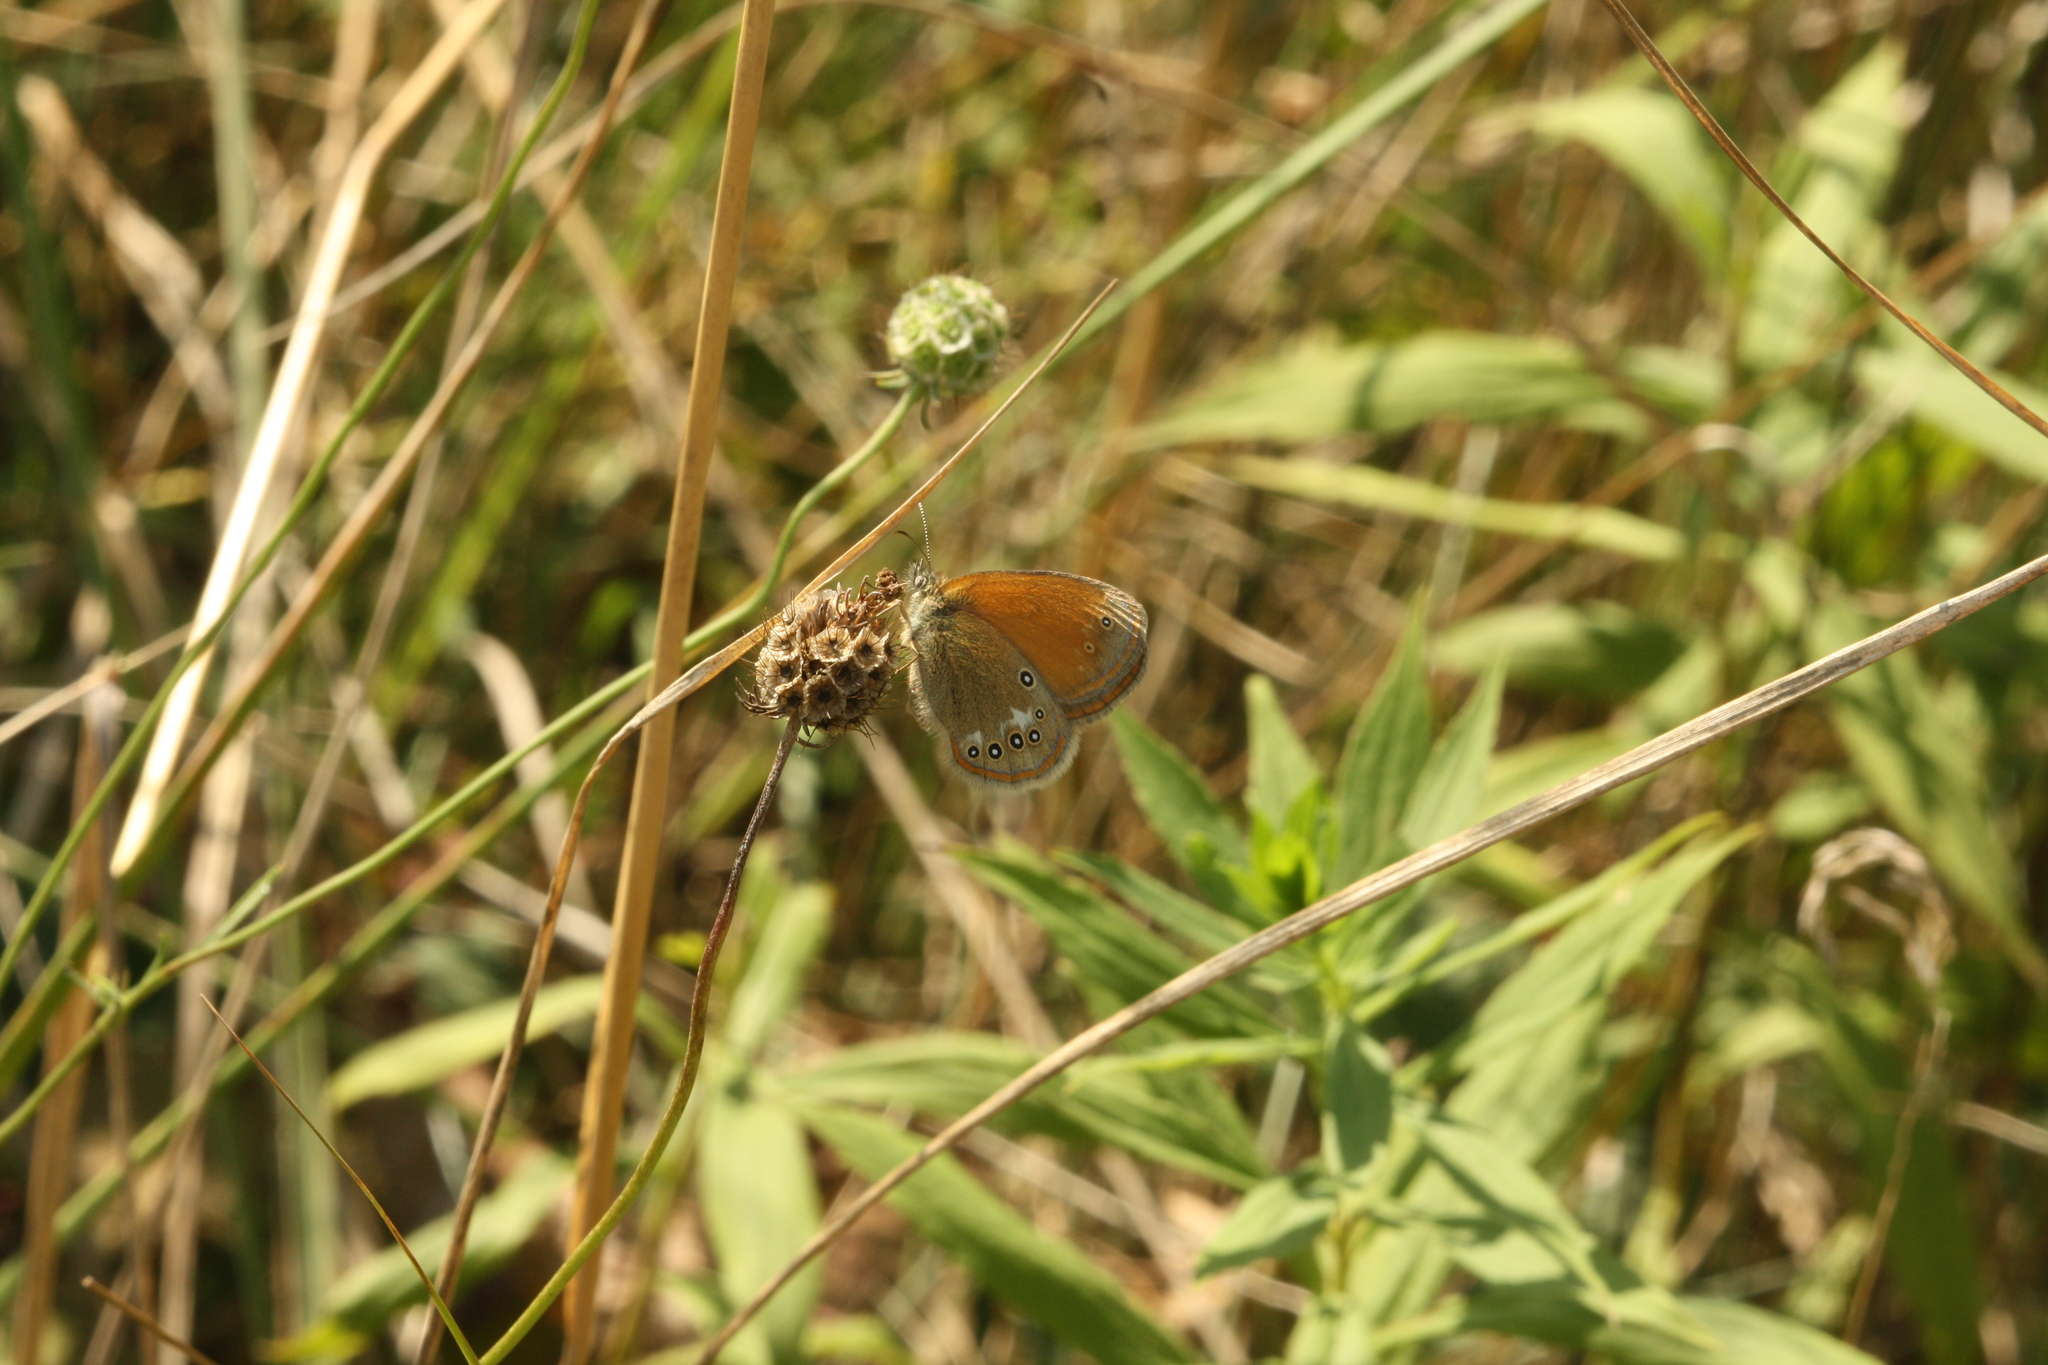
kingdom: Animalia
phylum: Arthropoda
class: Insecta
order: Lepidoptera
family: Nymphalidae
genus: Coenonympha
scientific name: Coenonympha iphis
